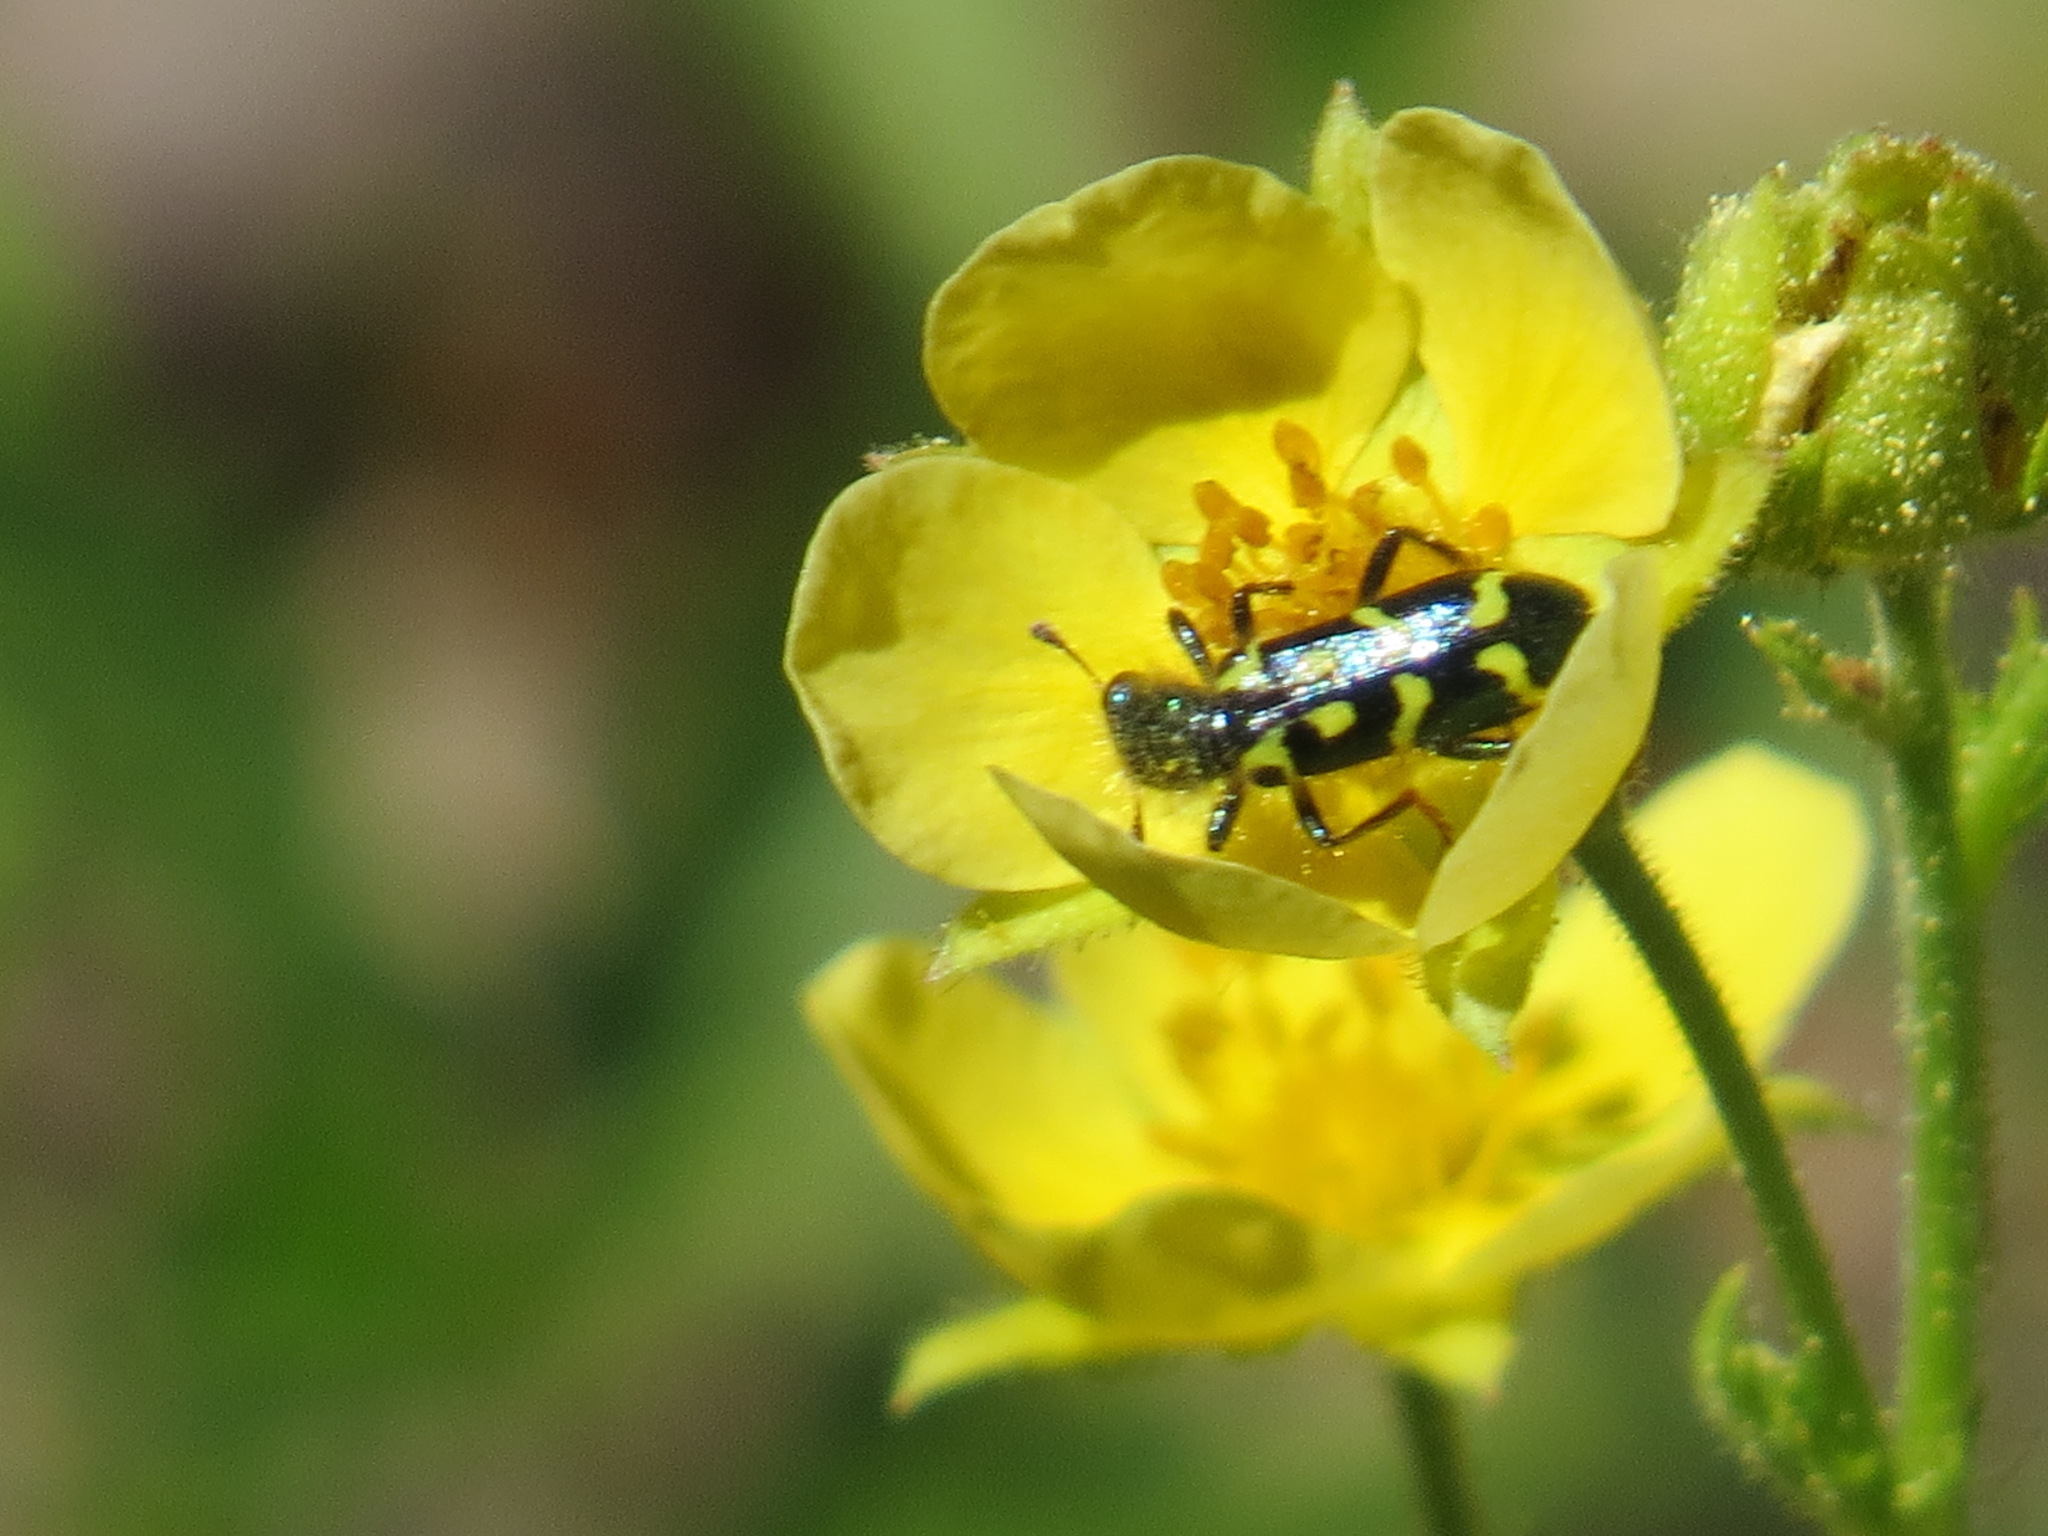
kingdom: Animalia
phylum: Arthropoda
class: Insecta
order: Coleoptera
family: Cleridae
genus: Trichodes
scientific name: Trichodes ornatus
